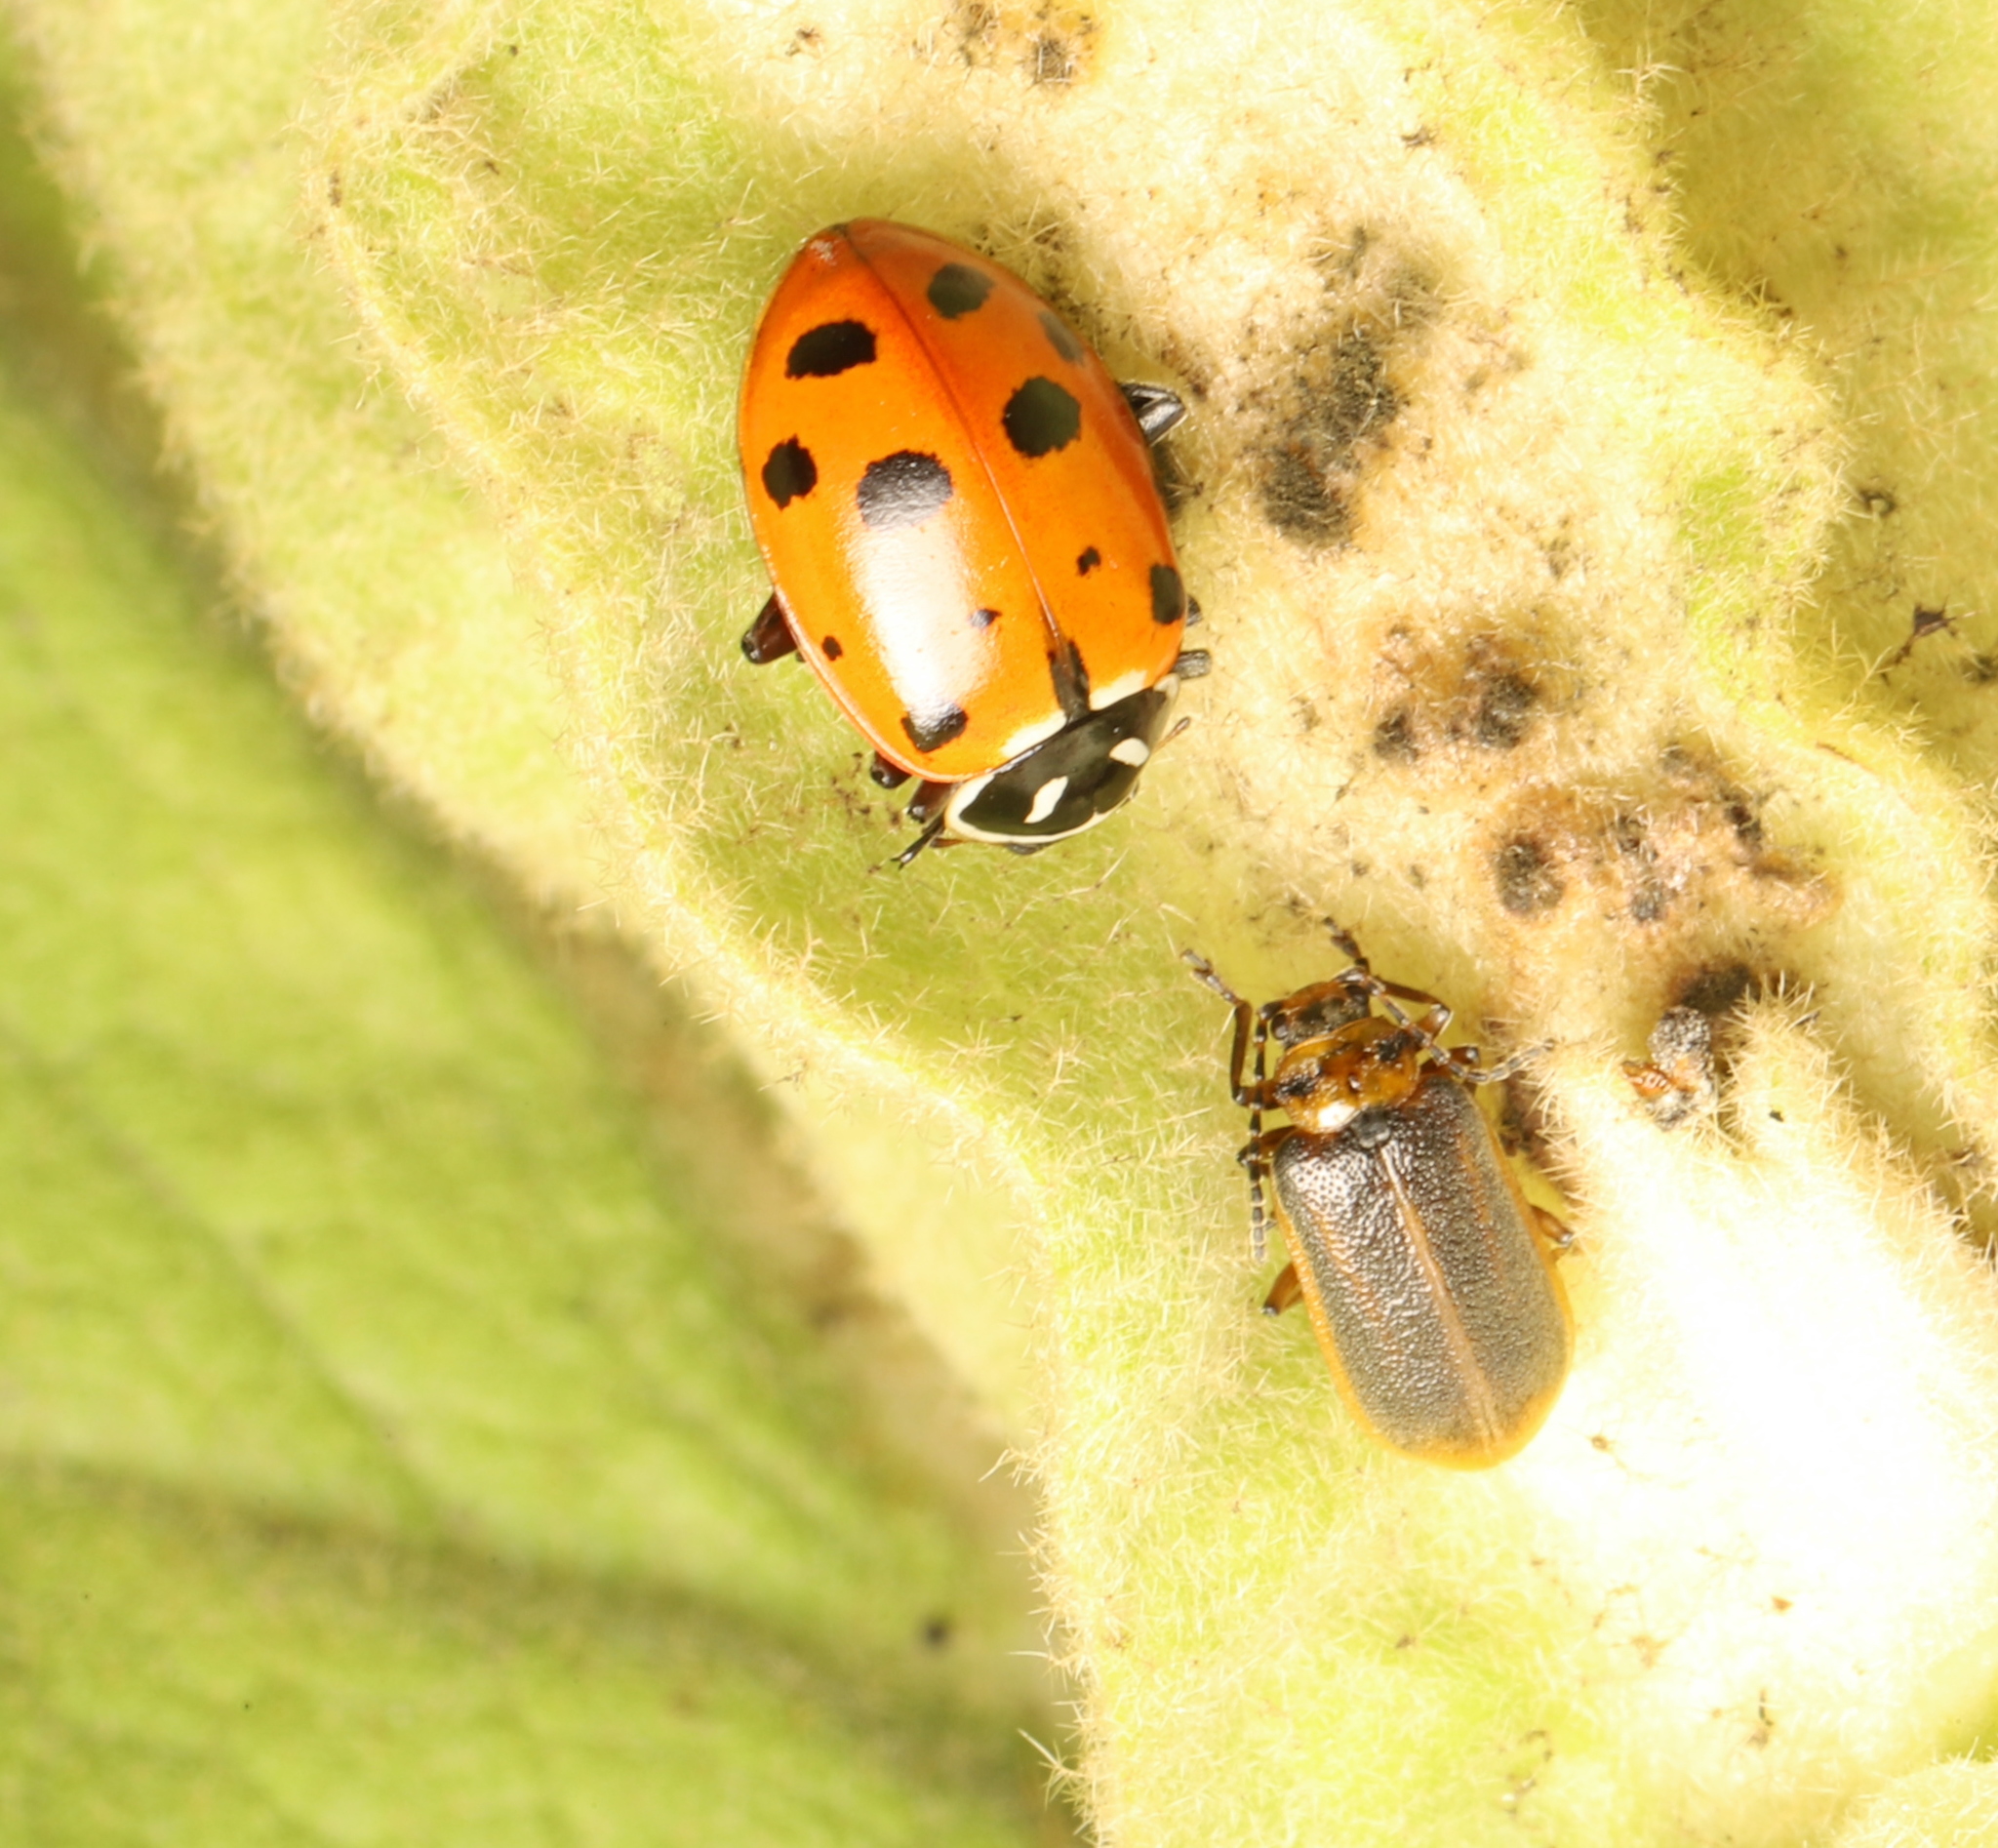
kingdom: Animalia
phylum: Arthropoda
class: Insecta
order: Coleoptera
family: Coccinellidae
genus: Hippodamia
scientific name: Hippodamia convergens
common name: Convergent lady beetle
